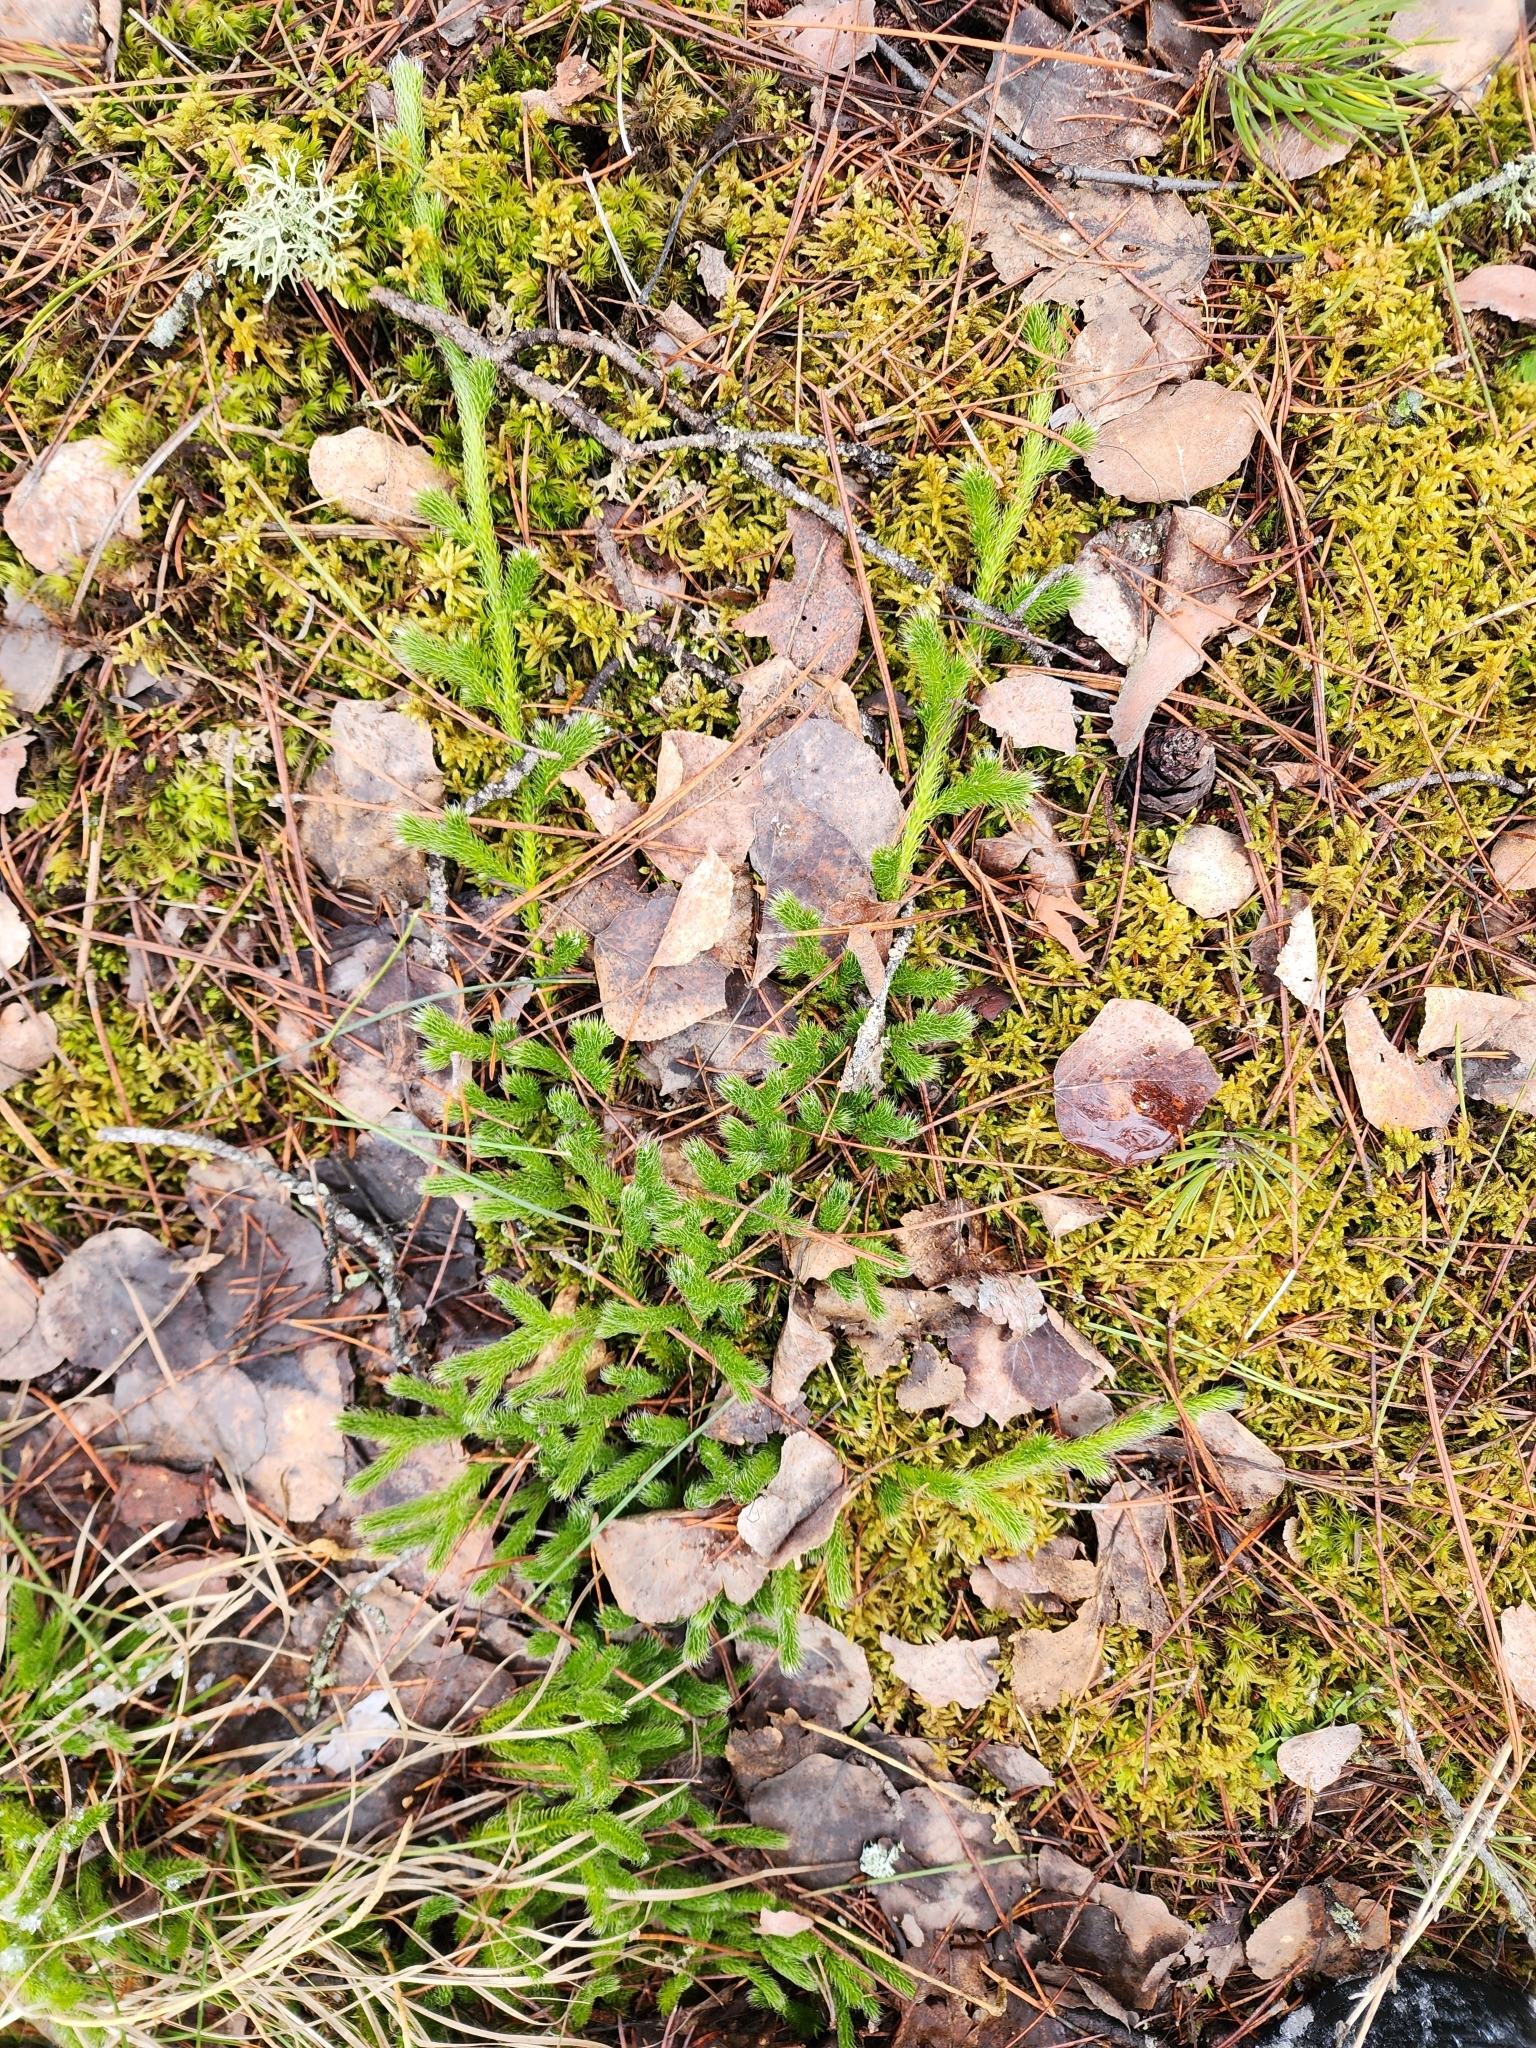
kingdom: Plantae
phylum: Tracheophyta
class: Lycopodiopsida
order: Lycopodiales
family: Lycopodiaceae
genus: Lycopodium
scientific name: Lycopodium clavatum
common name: Stag's-horn clubmoss
